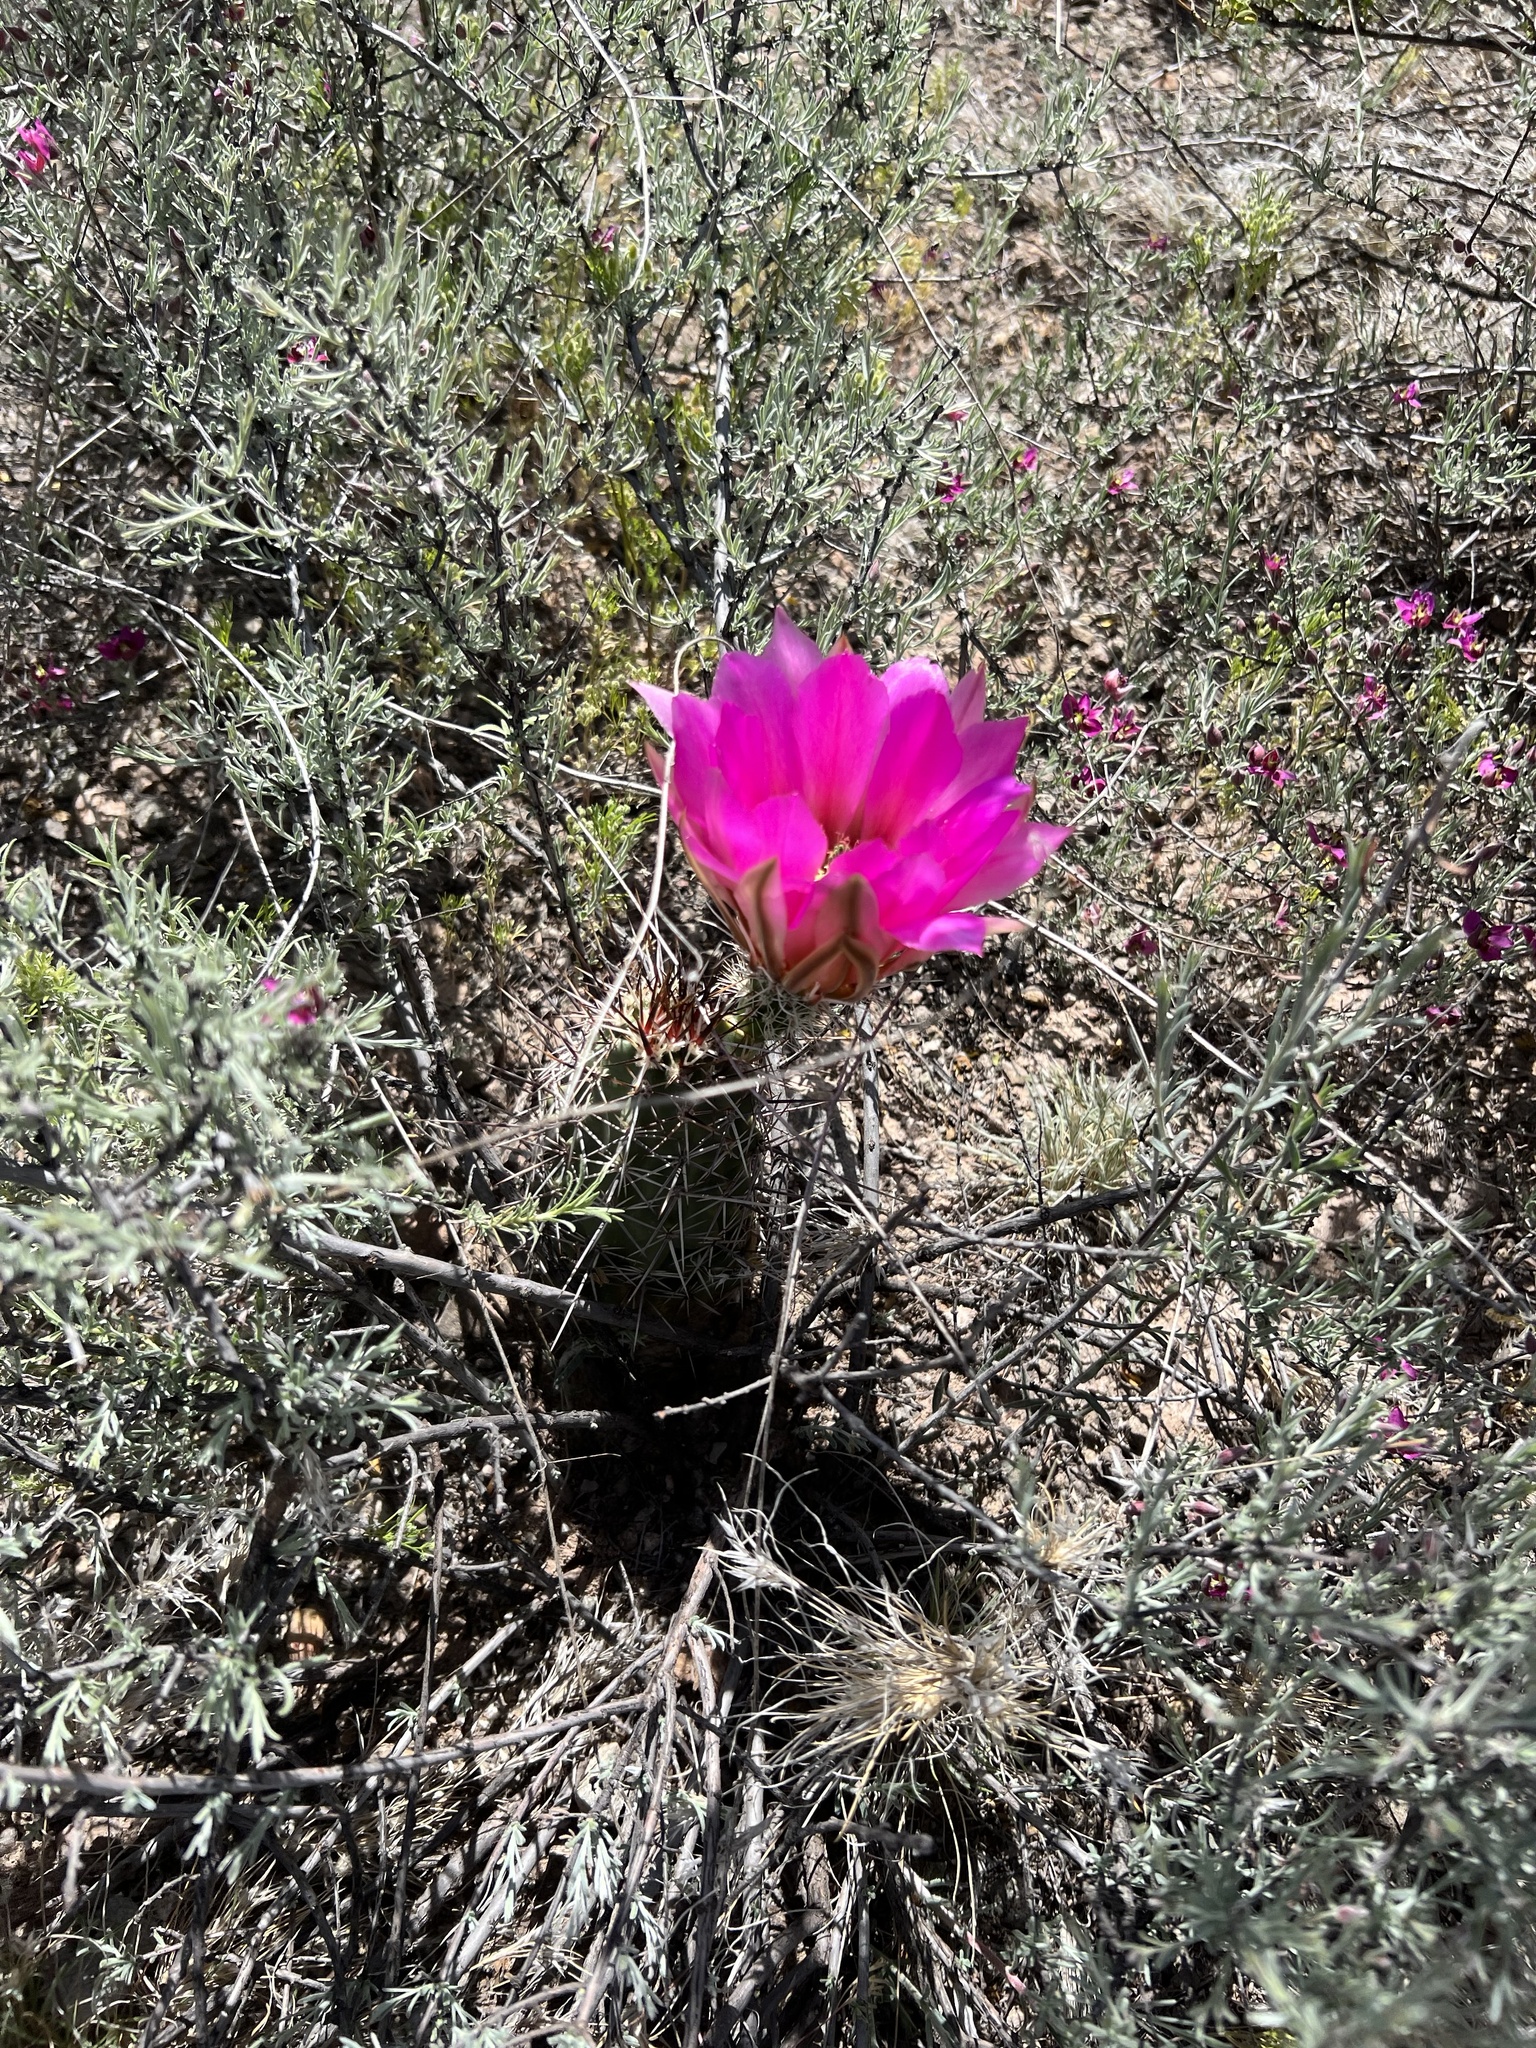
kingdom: Plantae
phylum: Tracheophyta
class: Magnoliopsida
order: Caryophyllales
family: Cactaceae
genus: Echinocereus
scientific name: Echinocereus fasciculatus
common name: Bundle hedgehog
